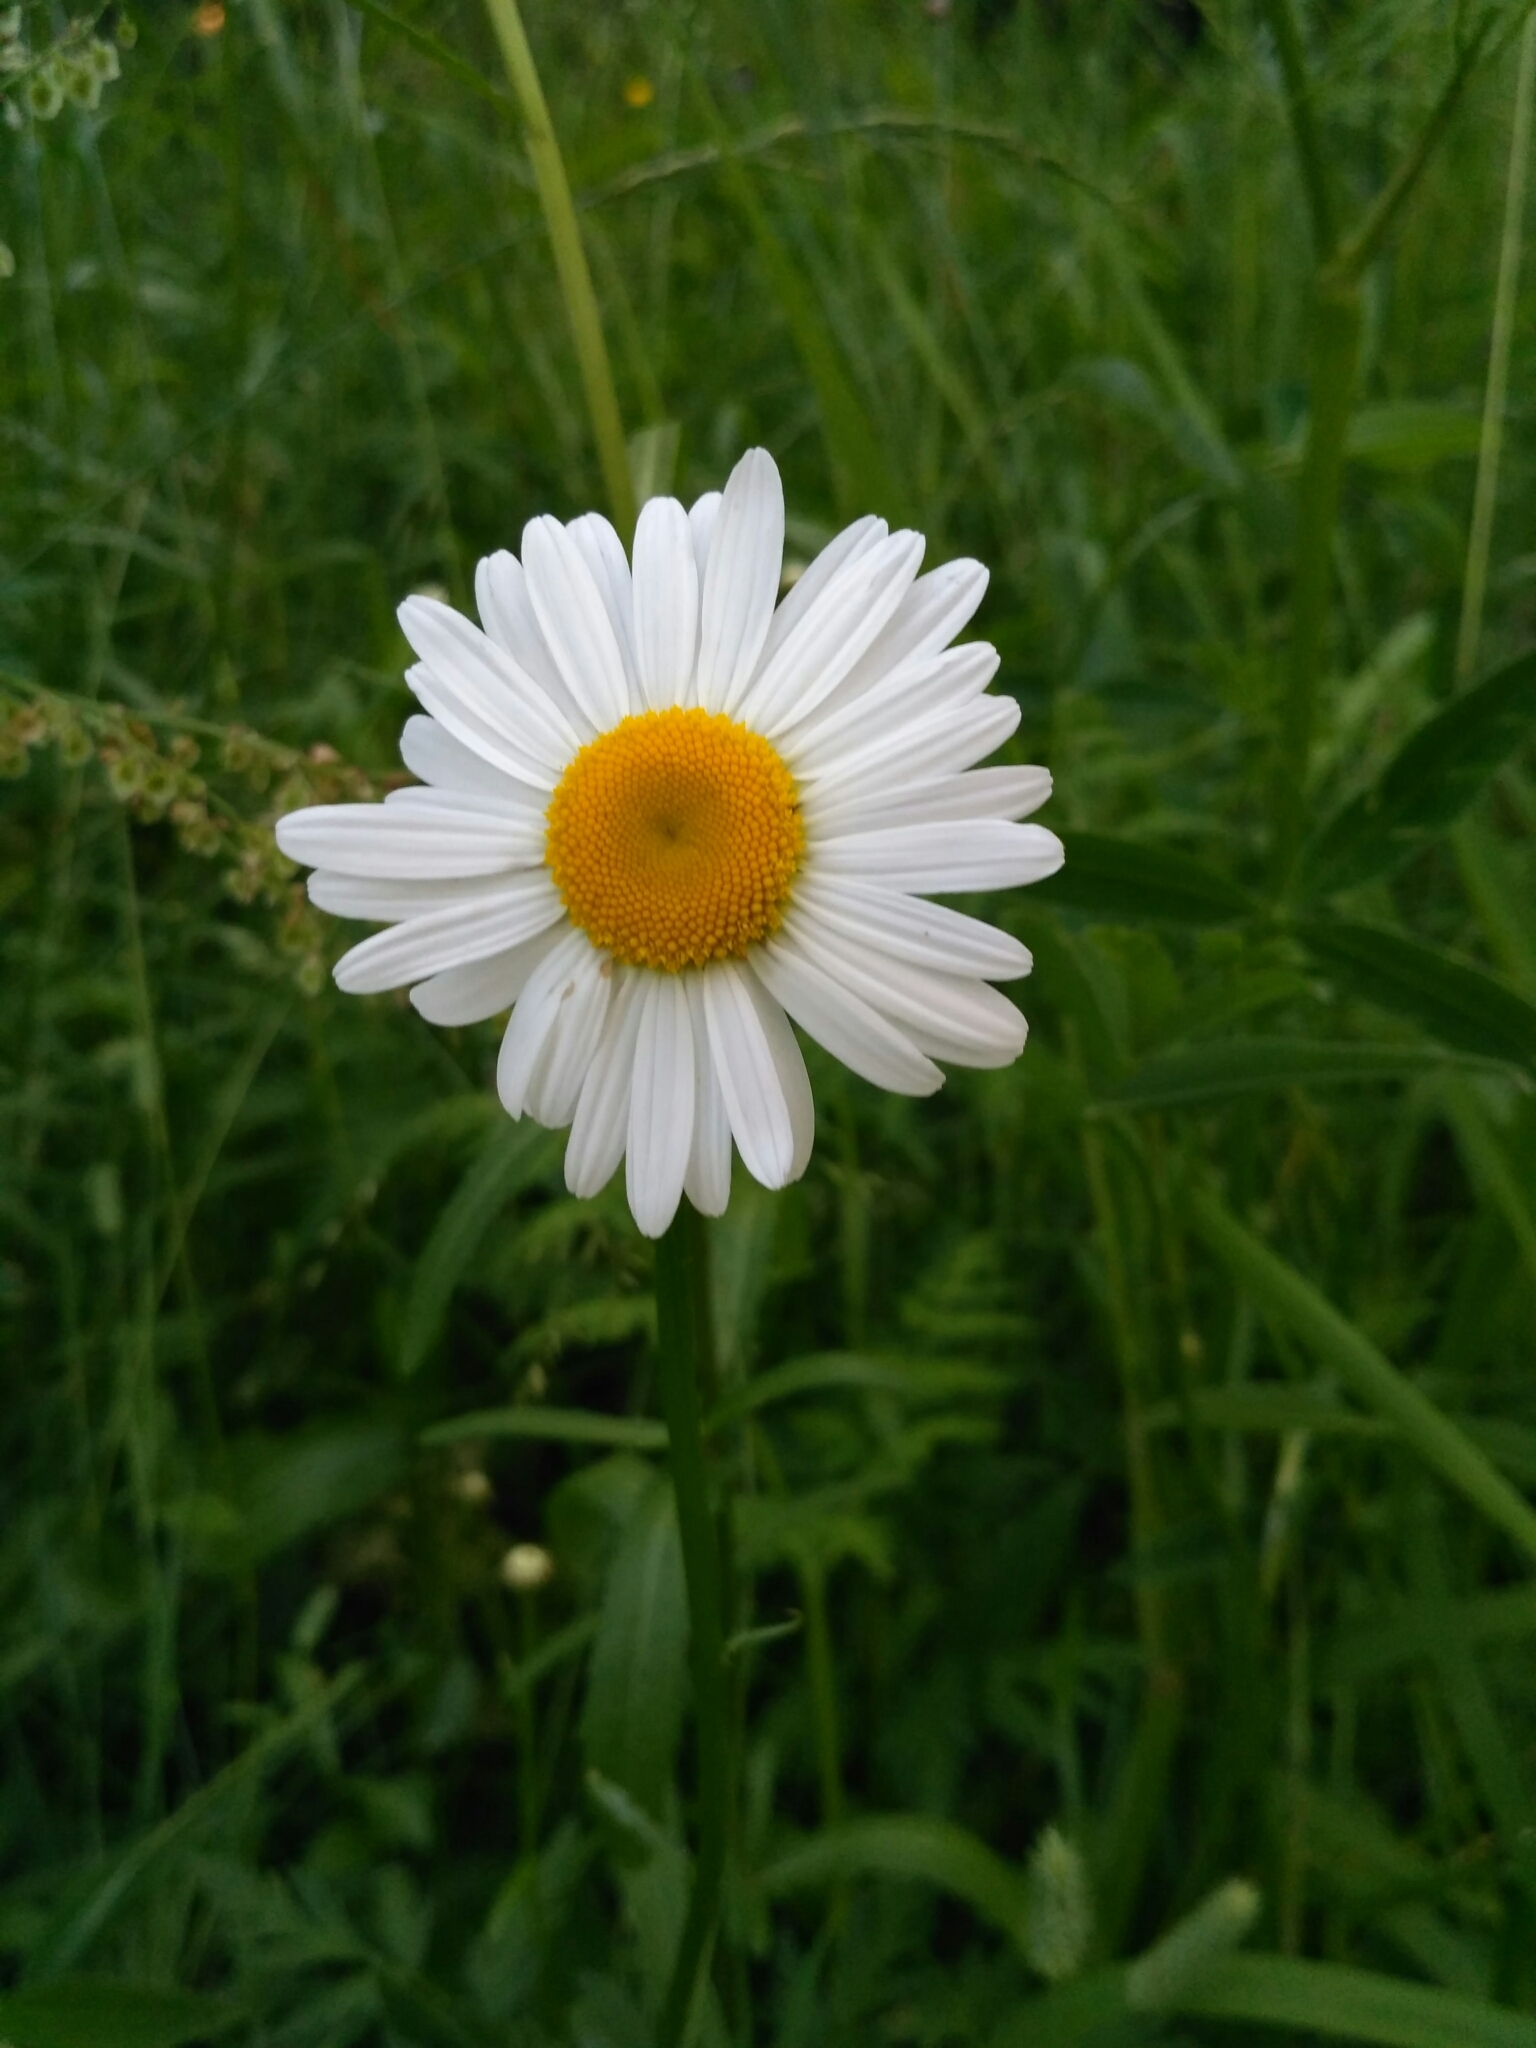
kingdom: Plantae
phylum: Tracheophyta
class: Magnoliopsida
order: Asterales
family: Asteraceae
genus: Leucanthemum
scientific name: Leucanthemum vulgare
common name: Oxeye daisy
